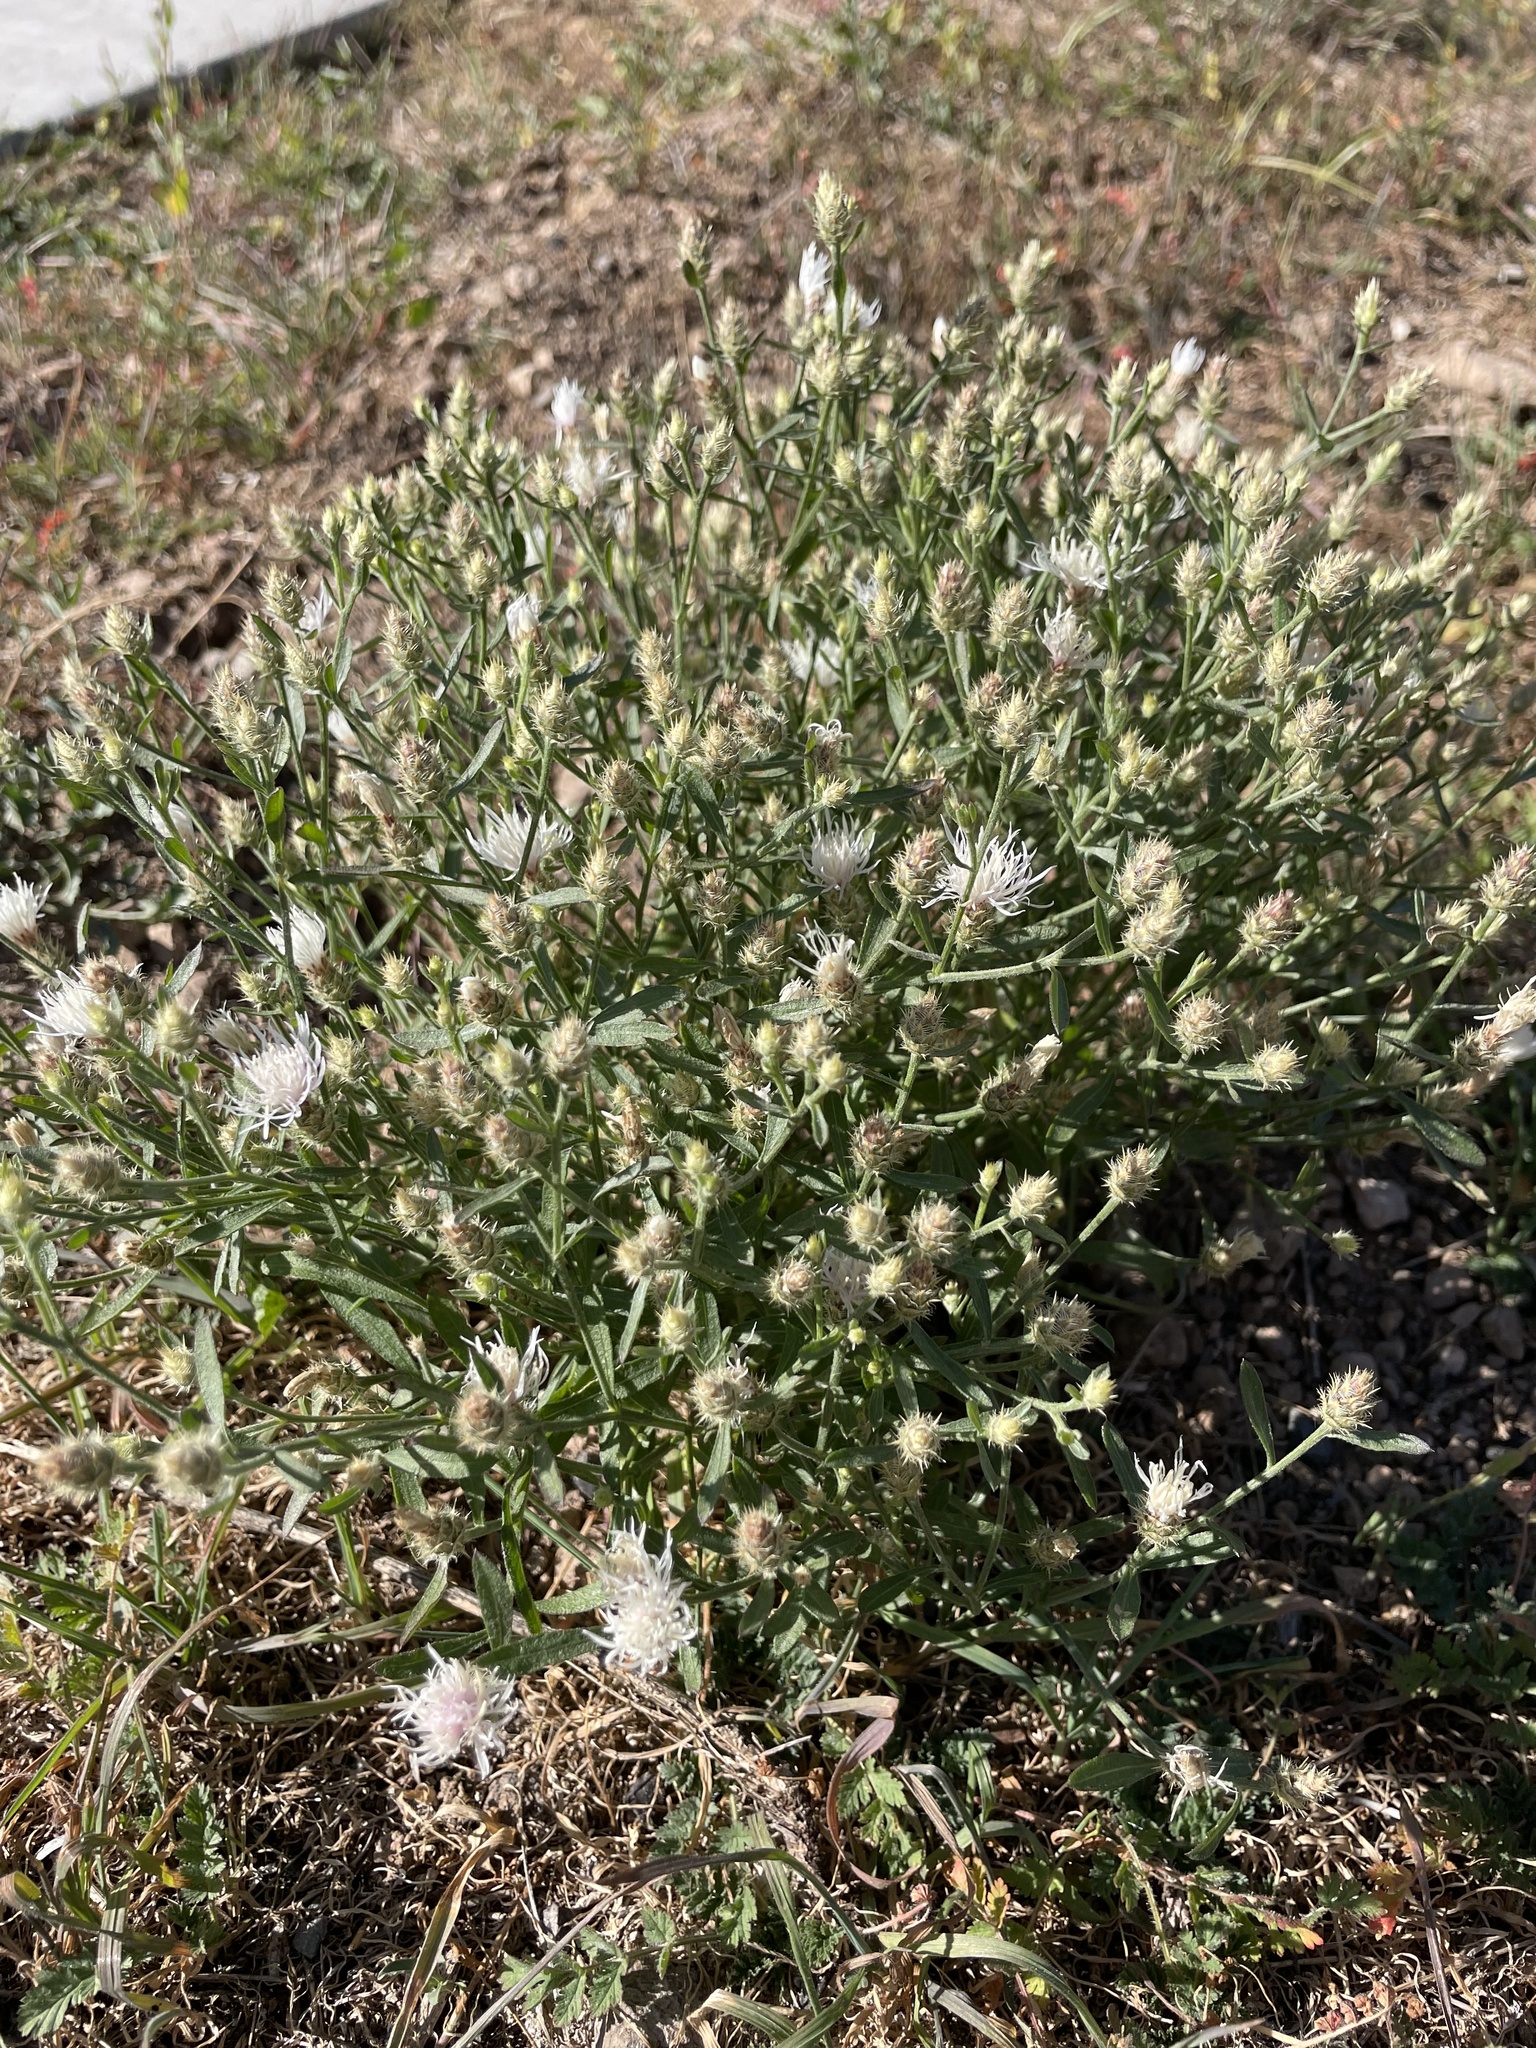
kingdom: Plantae
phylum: Tracheophyta
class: Magnoliopsida
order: Asterales
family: Asteraceae
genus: Centaurea
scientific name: Centaurea diffusa
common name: Diffuse knapweed
